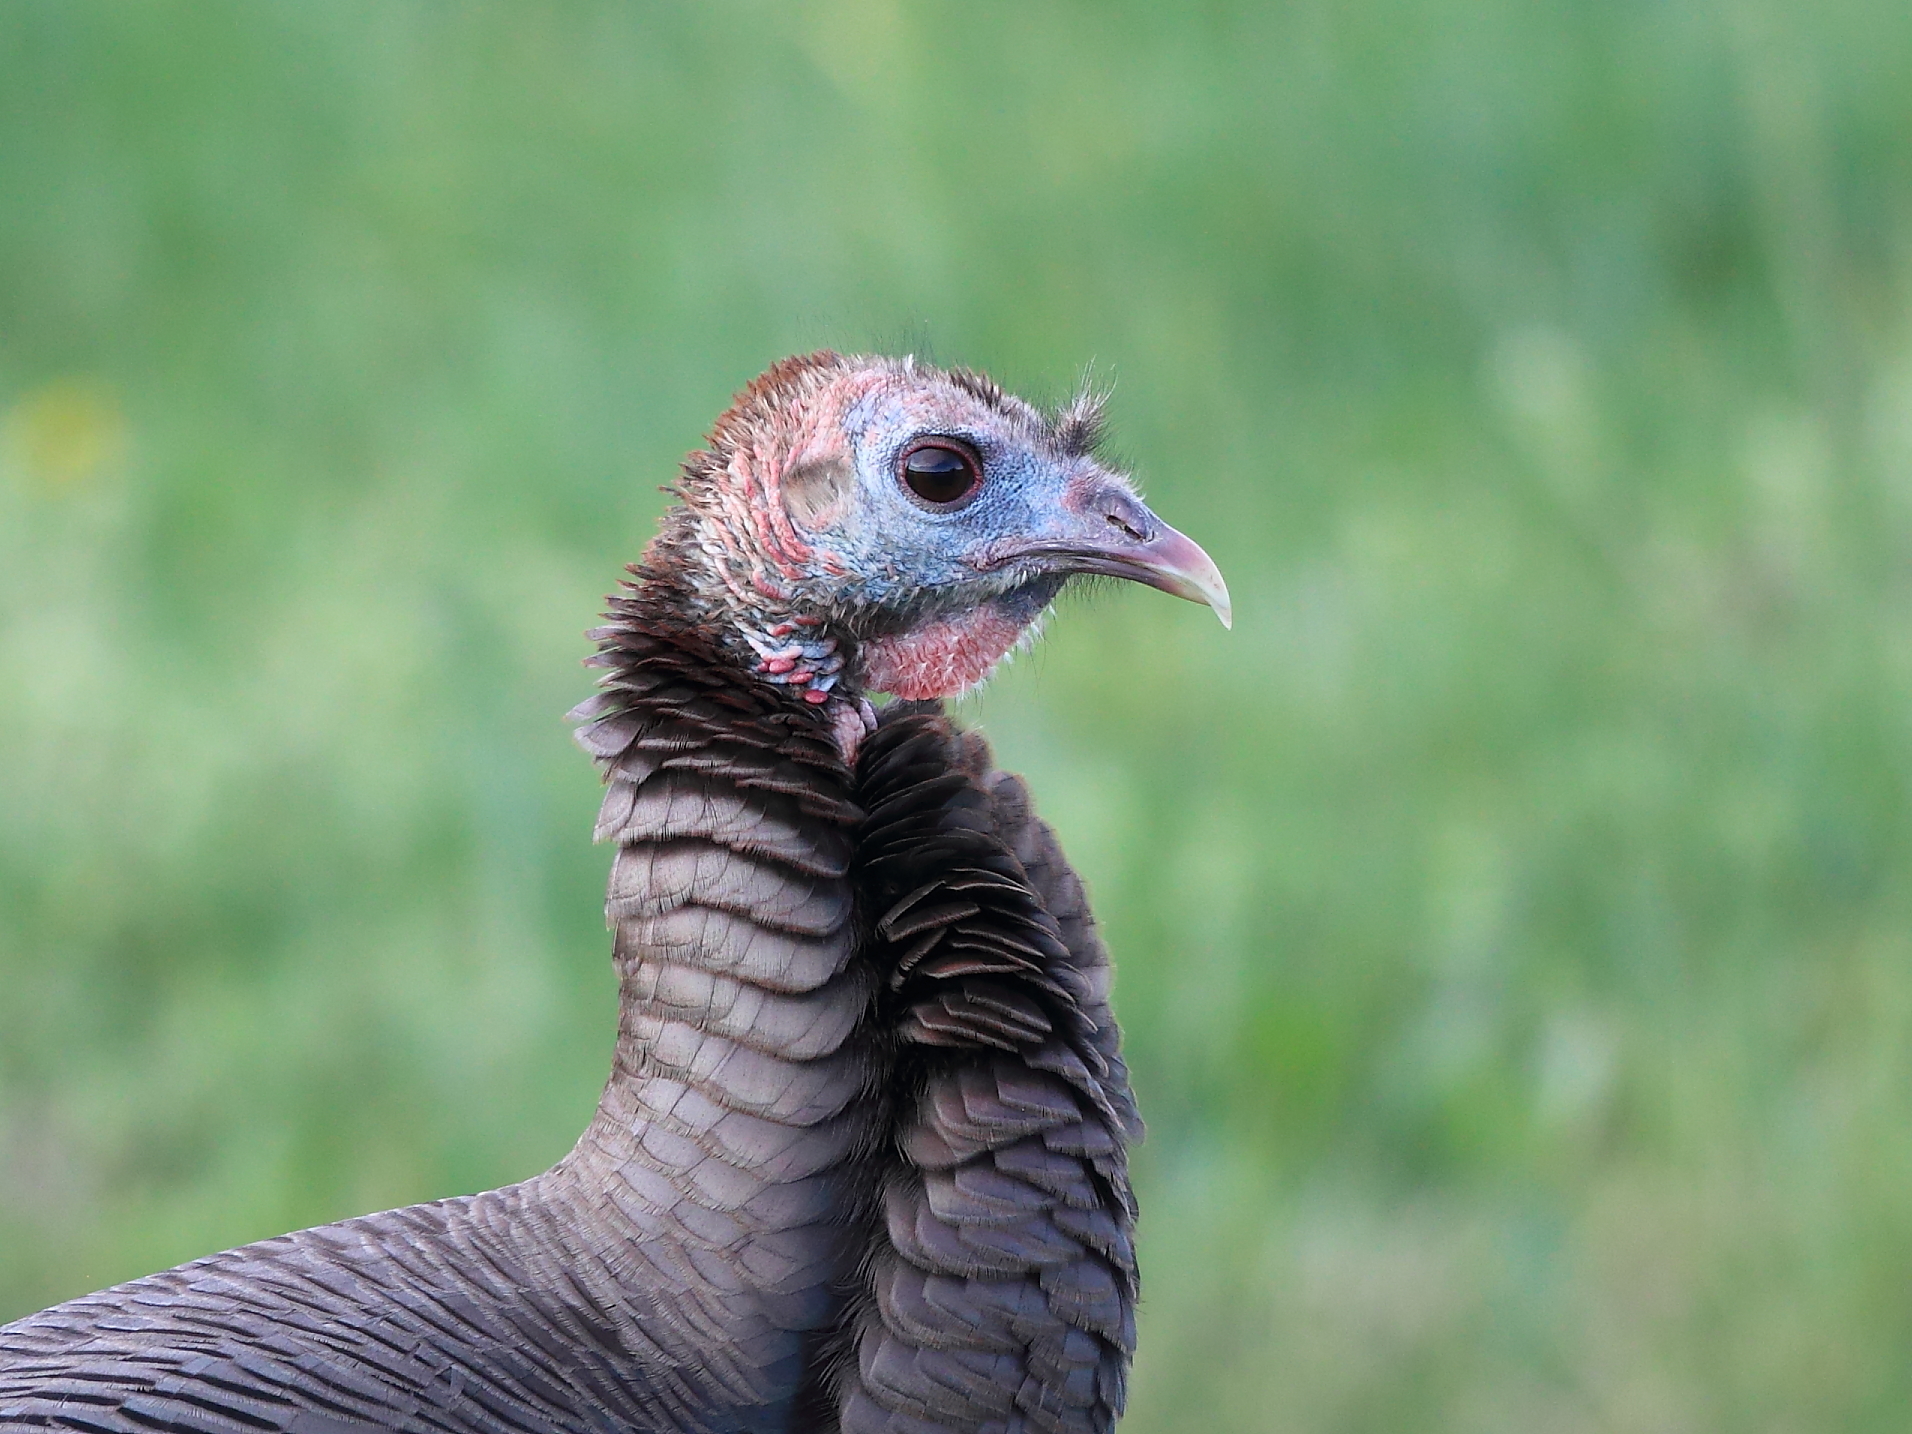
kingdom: Animalia
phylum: Chordata
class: Aves
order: Galliformes
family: Phasianidae
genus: Meleagris
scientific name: Meleagris gallopavo
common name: Wild turkey
